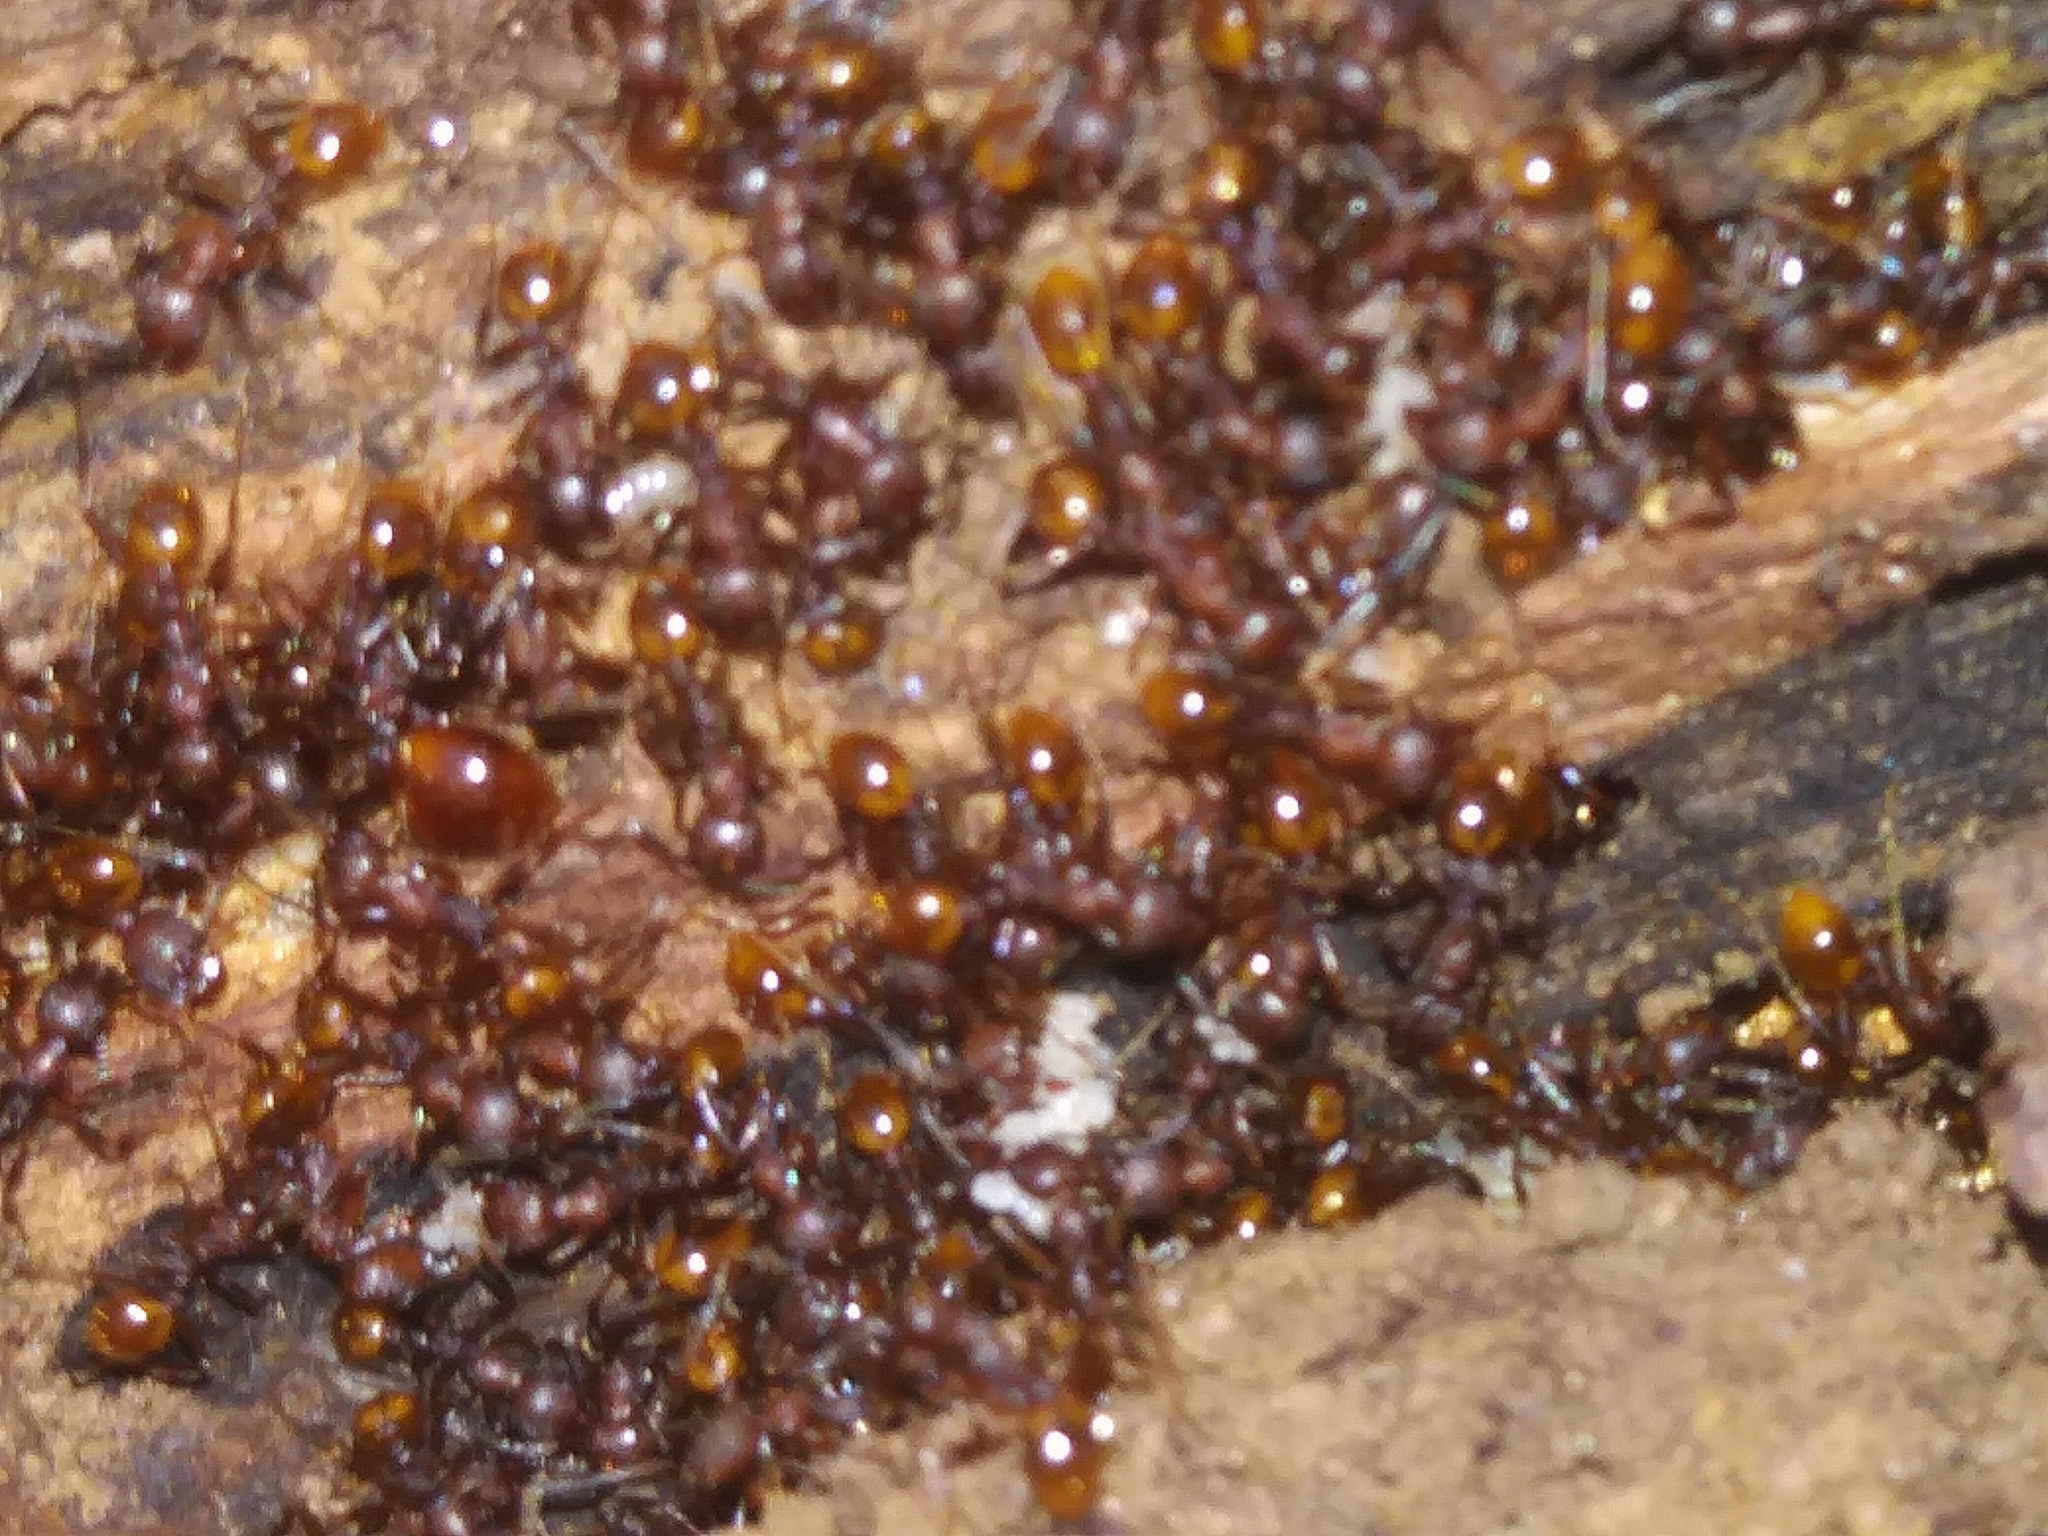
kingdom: Animalia
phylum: Arthropoda
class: Insecta
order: Hymenoptera
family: Formicidae
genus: Aphaenogaster
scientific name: Aphaenogaster fulva
